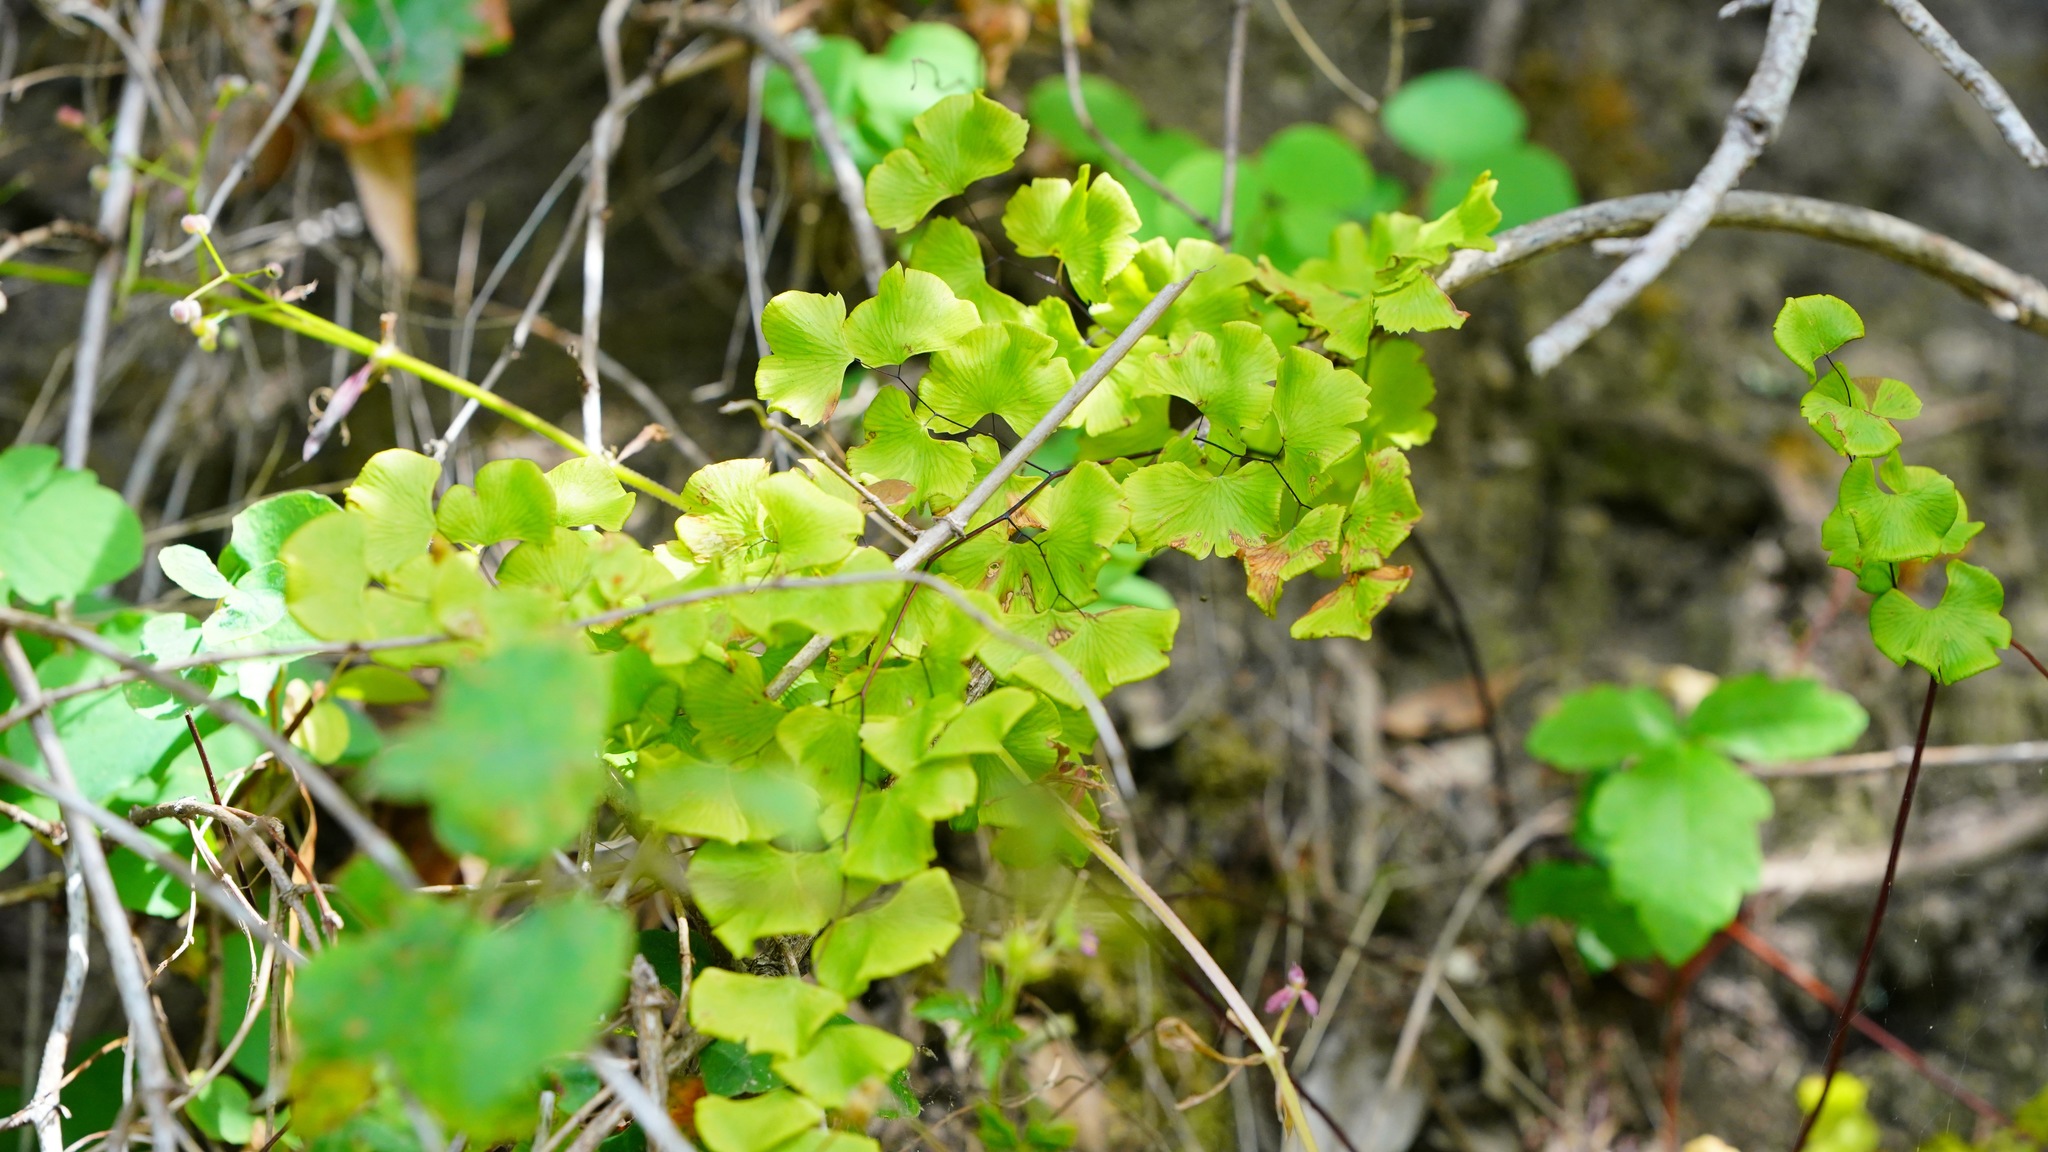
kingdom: Plantae
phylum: Tracheophyta
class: Polypodiopsida
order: Polypodiales
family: Pteridaceae
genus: Adiantum
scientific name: Adiantum jordanii
